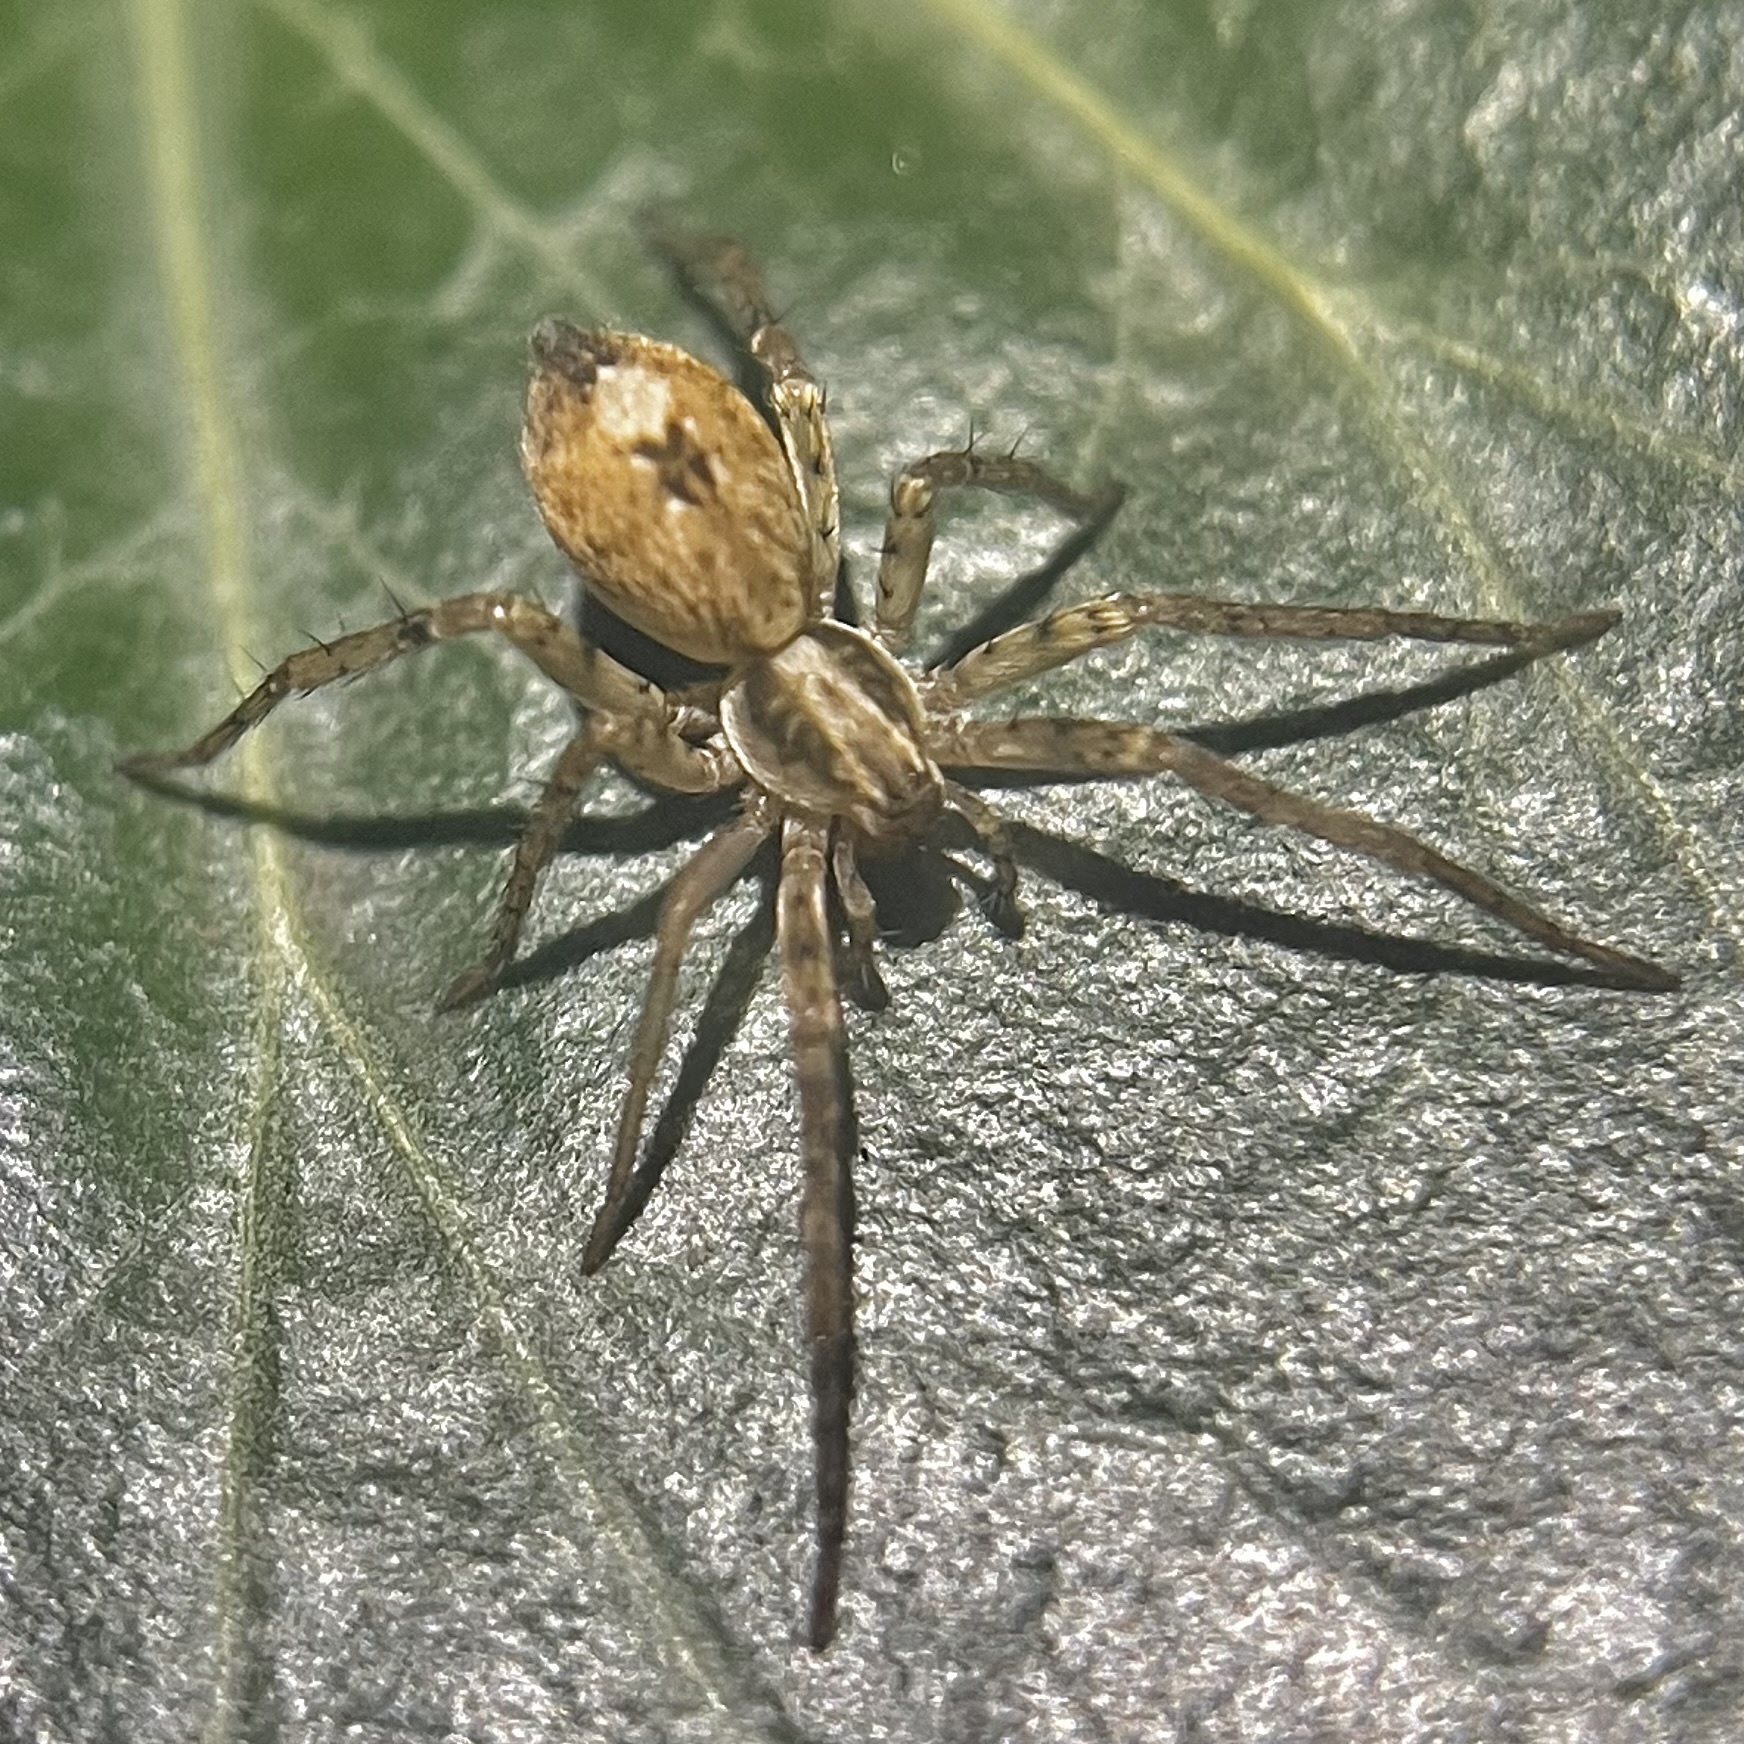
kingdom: Animalia
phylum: Arthropoda
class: Arachnida
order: Araneae
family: Anyphaenidae
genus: Anyphaena
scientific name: Anyphaena accentuata
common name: Buzzing spider
